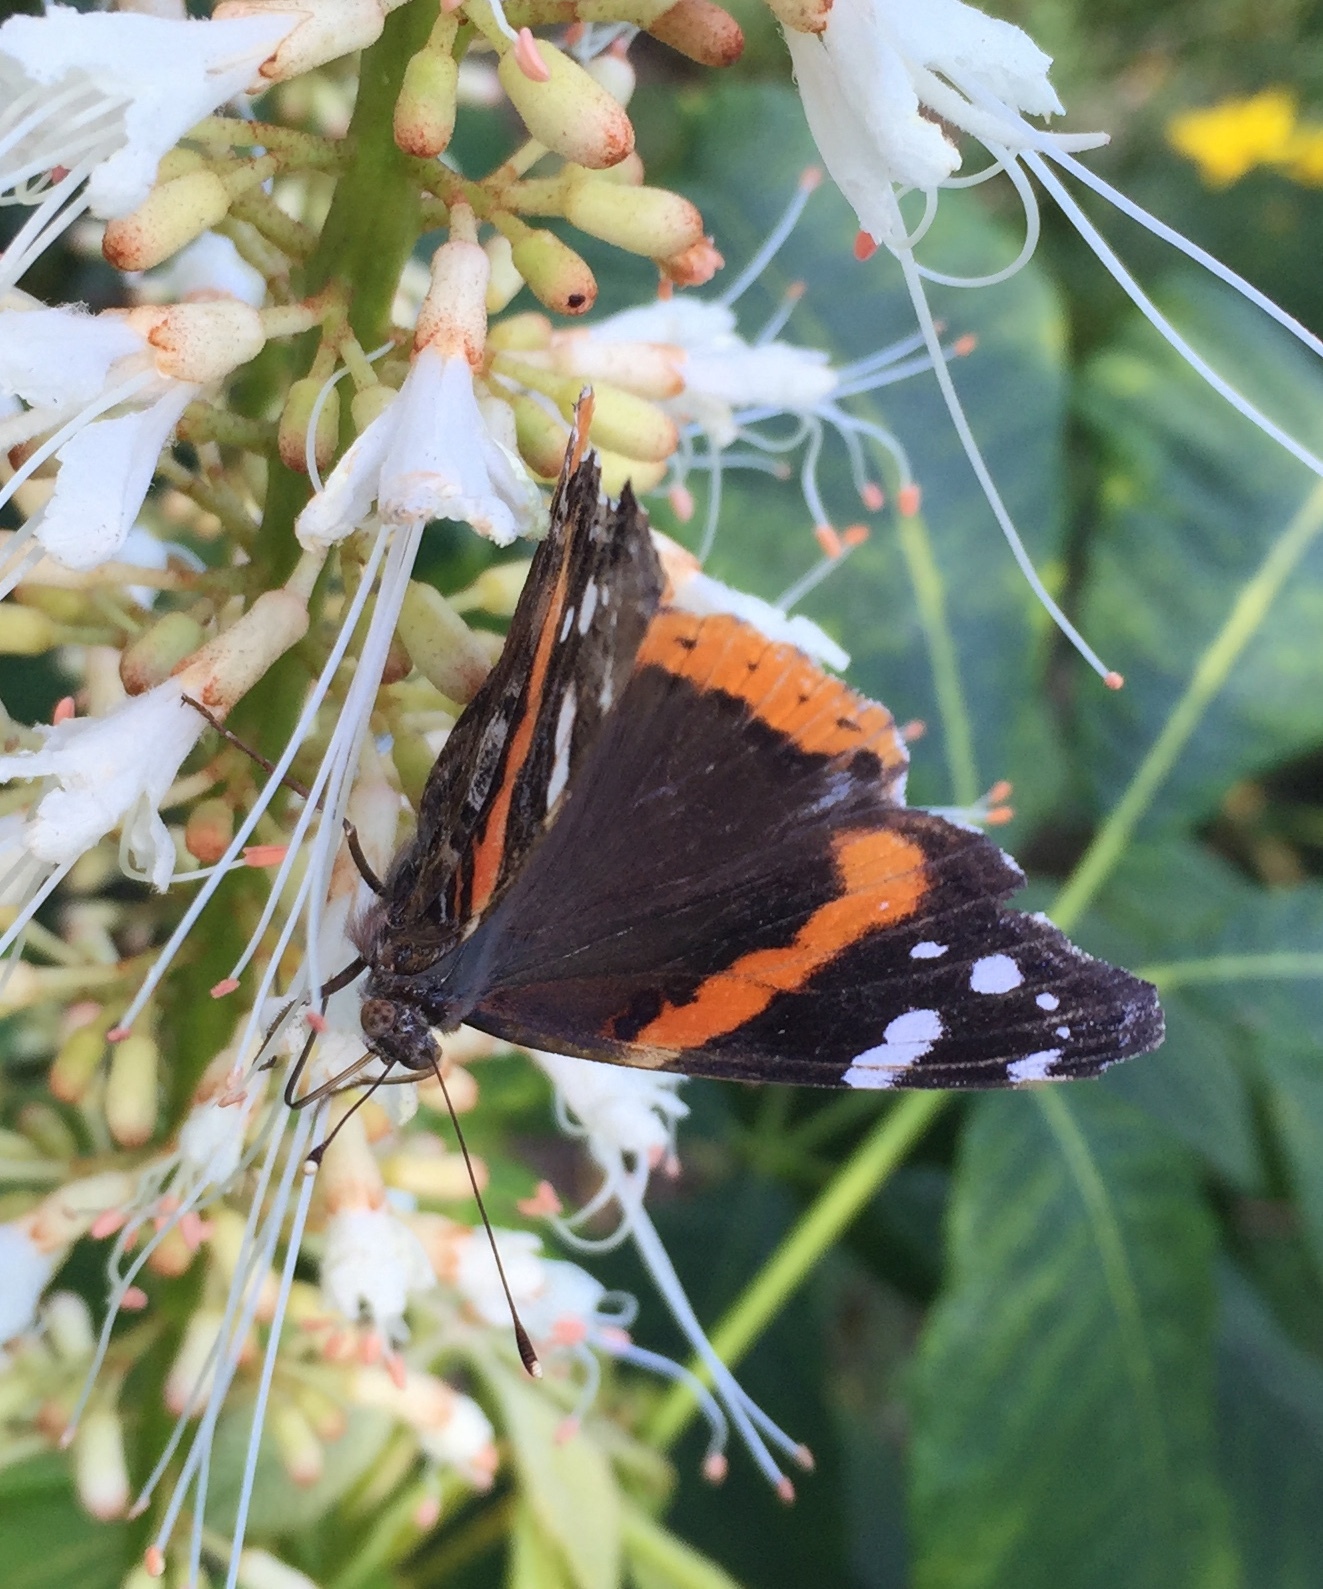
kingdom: Animalia
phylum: Arthropoda
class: Insecta
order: Lepidoptera
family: Nymphalidae
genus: Vanessa
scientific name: Vanessa atalanta
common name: Red admiral
